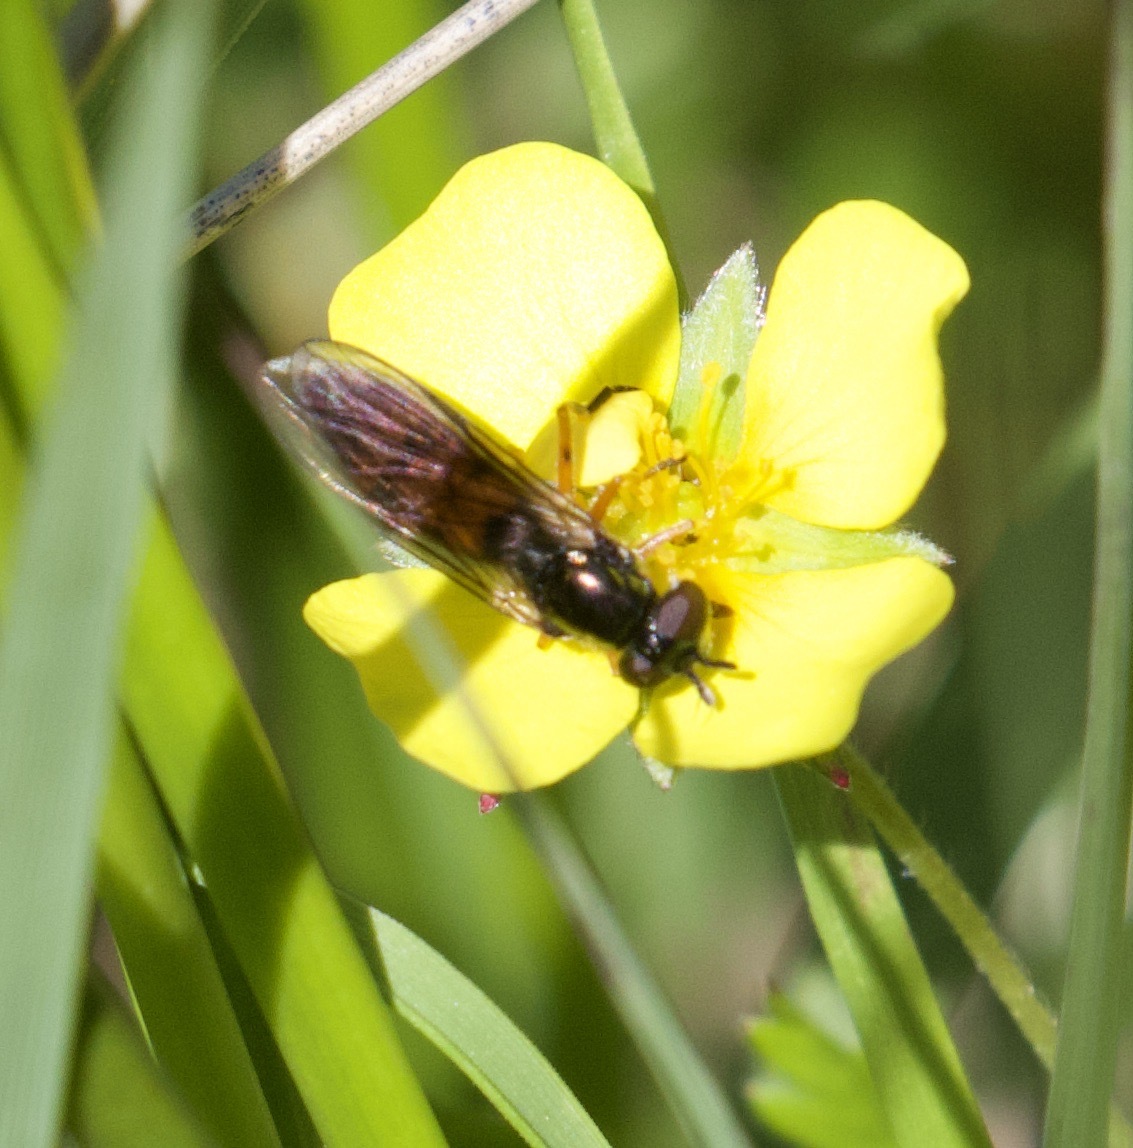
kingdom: Animalia
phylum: Arthropoda
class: Insecta
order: Diptera
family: Syrphidae
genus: Pyrophaena
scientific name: Pyrophaena granditarsa
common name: Hornhand sedgesitter
